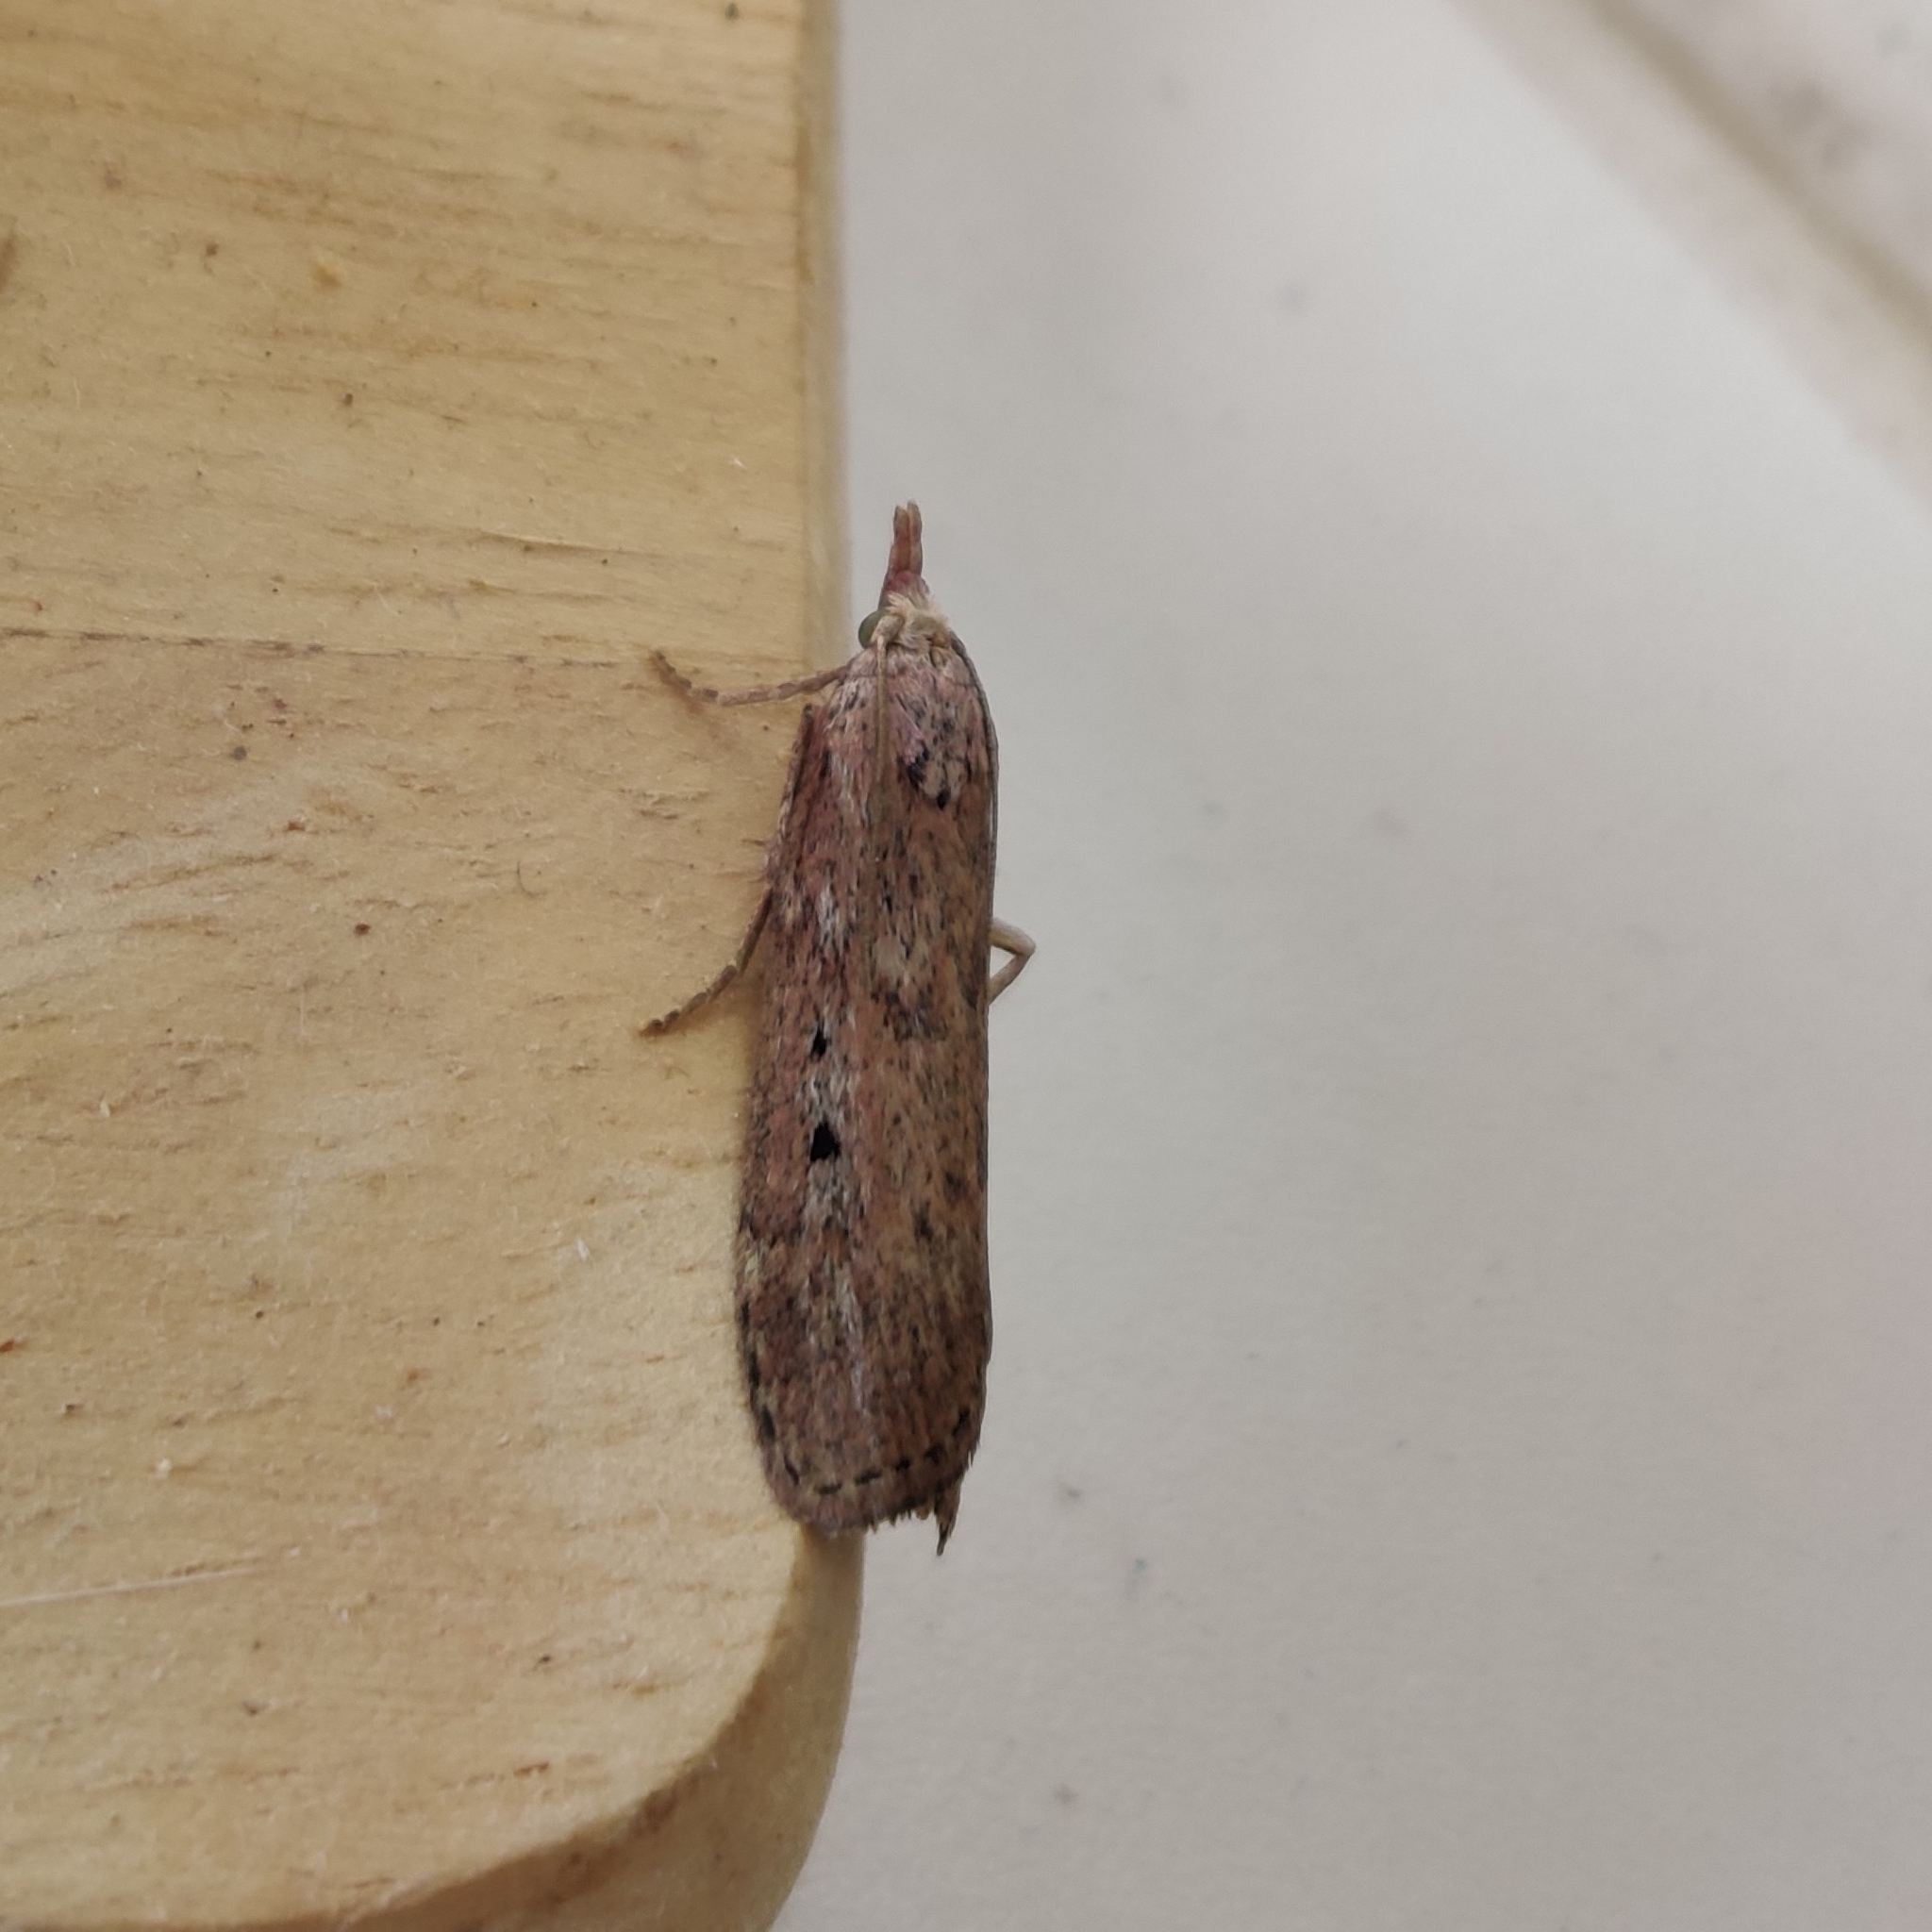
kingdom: Animalia
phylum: Arthropoda
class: Insecta
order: Lepidoptera
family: Pyralidae
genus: Aphomia
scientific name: Aphomia sociella
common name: Bee moth
